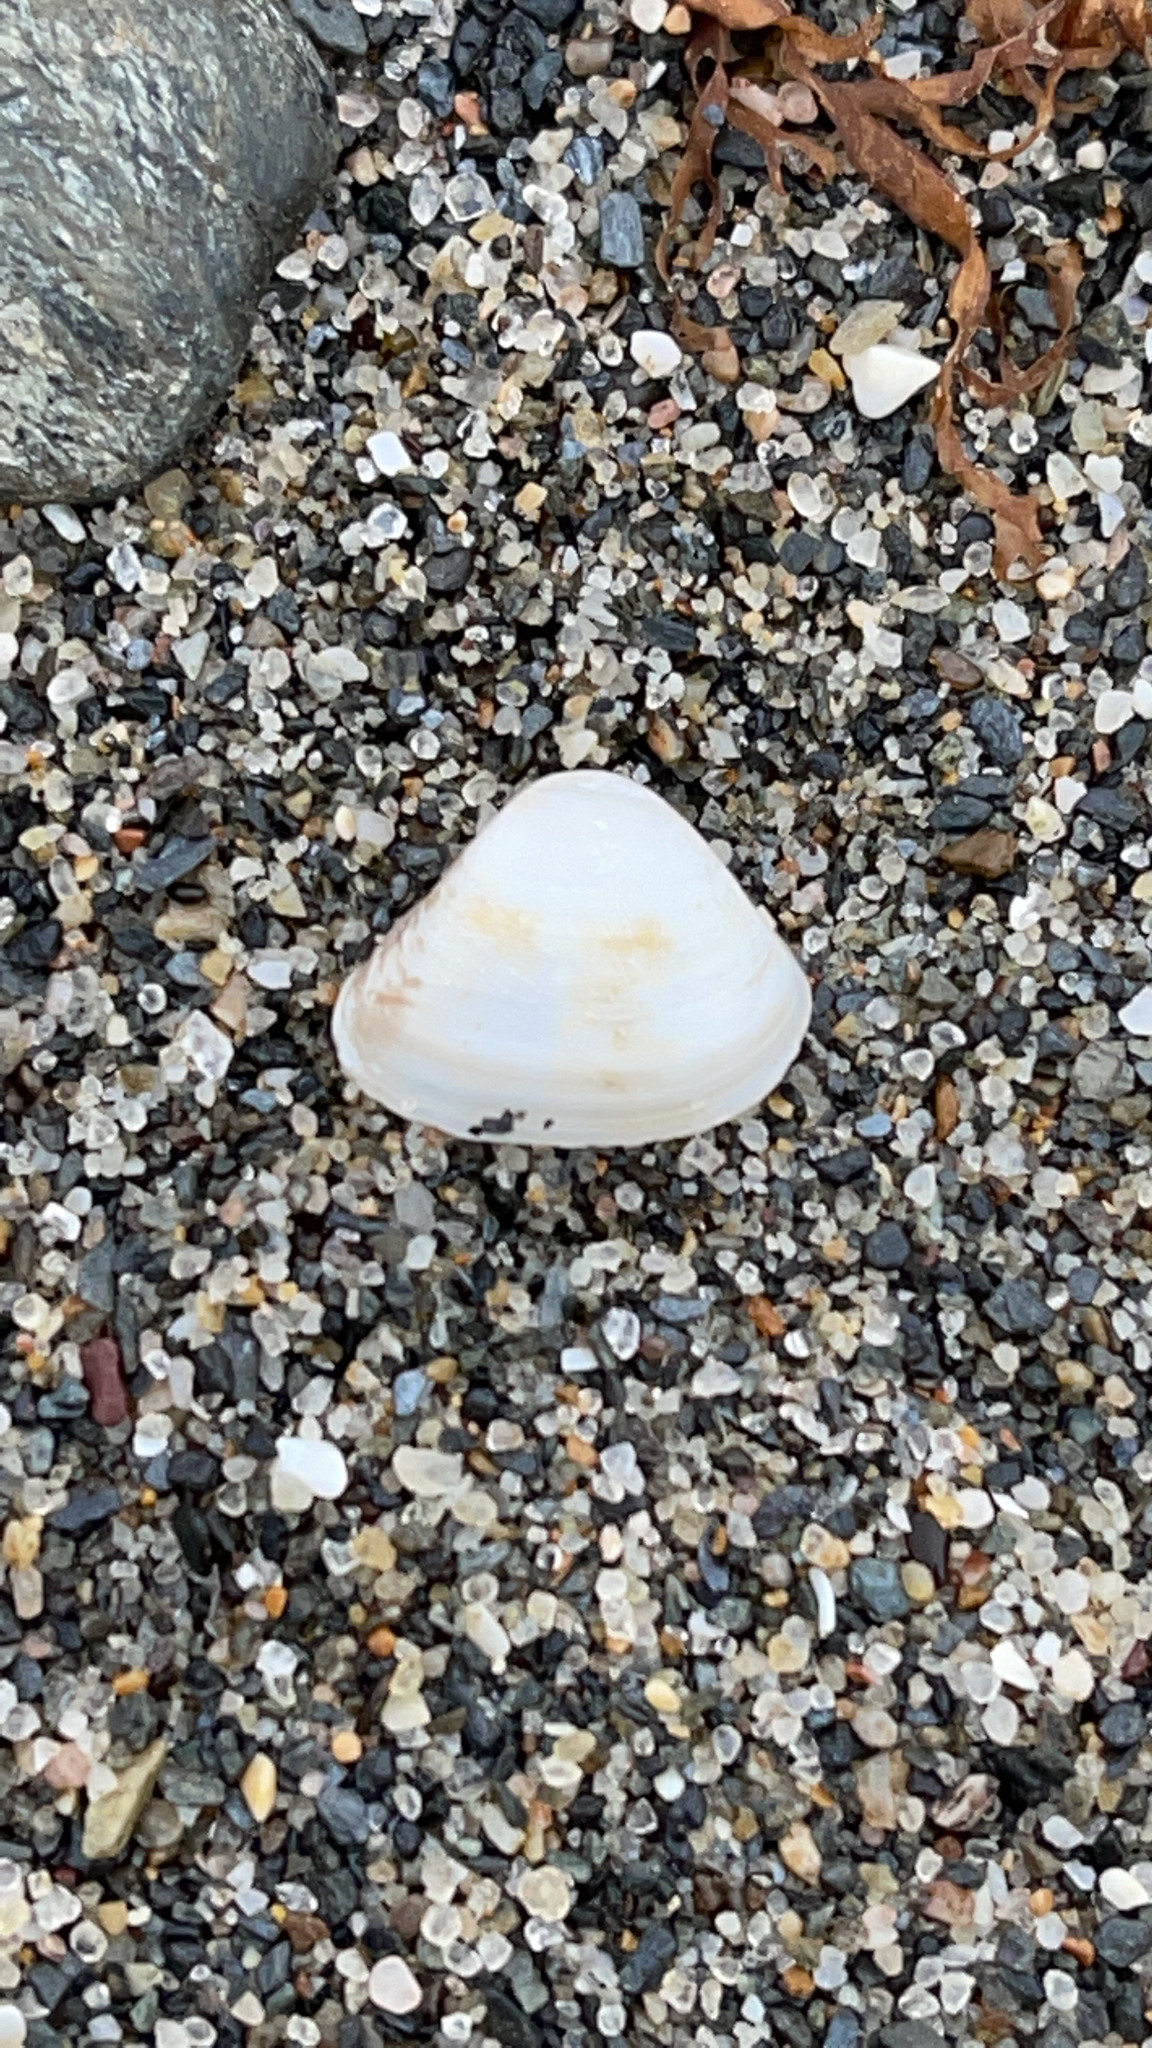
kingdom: Animalia
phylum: Mollusca
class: Bivalvia
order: Venerida
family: Mactridae
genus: Spisula
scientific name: Spisula subtruncata
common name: Cut trough shell
